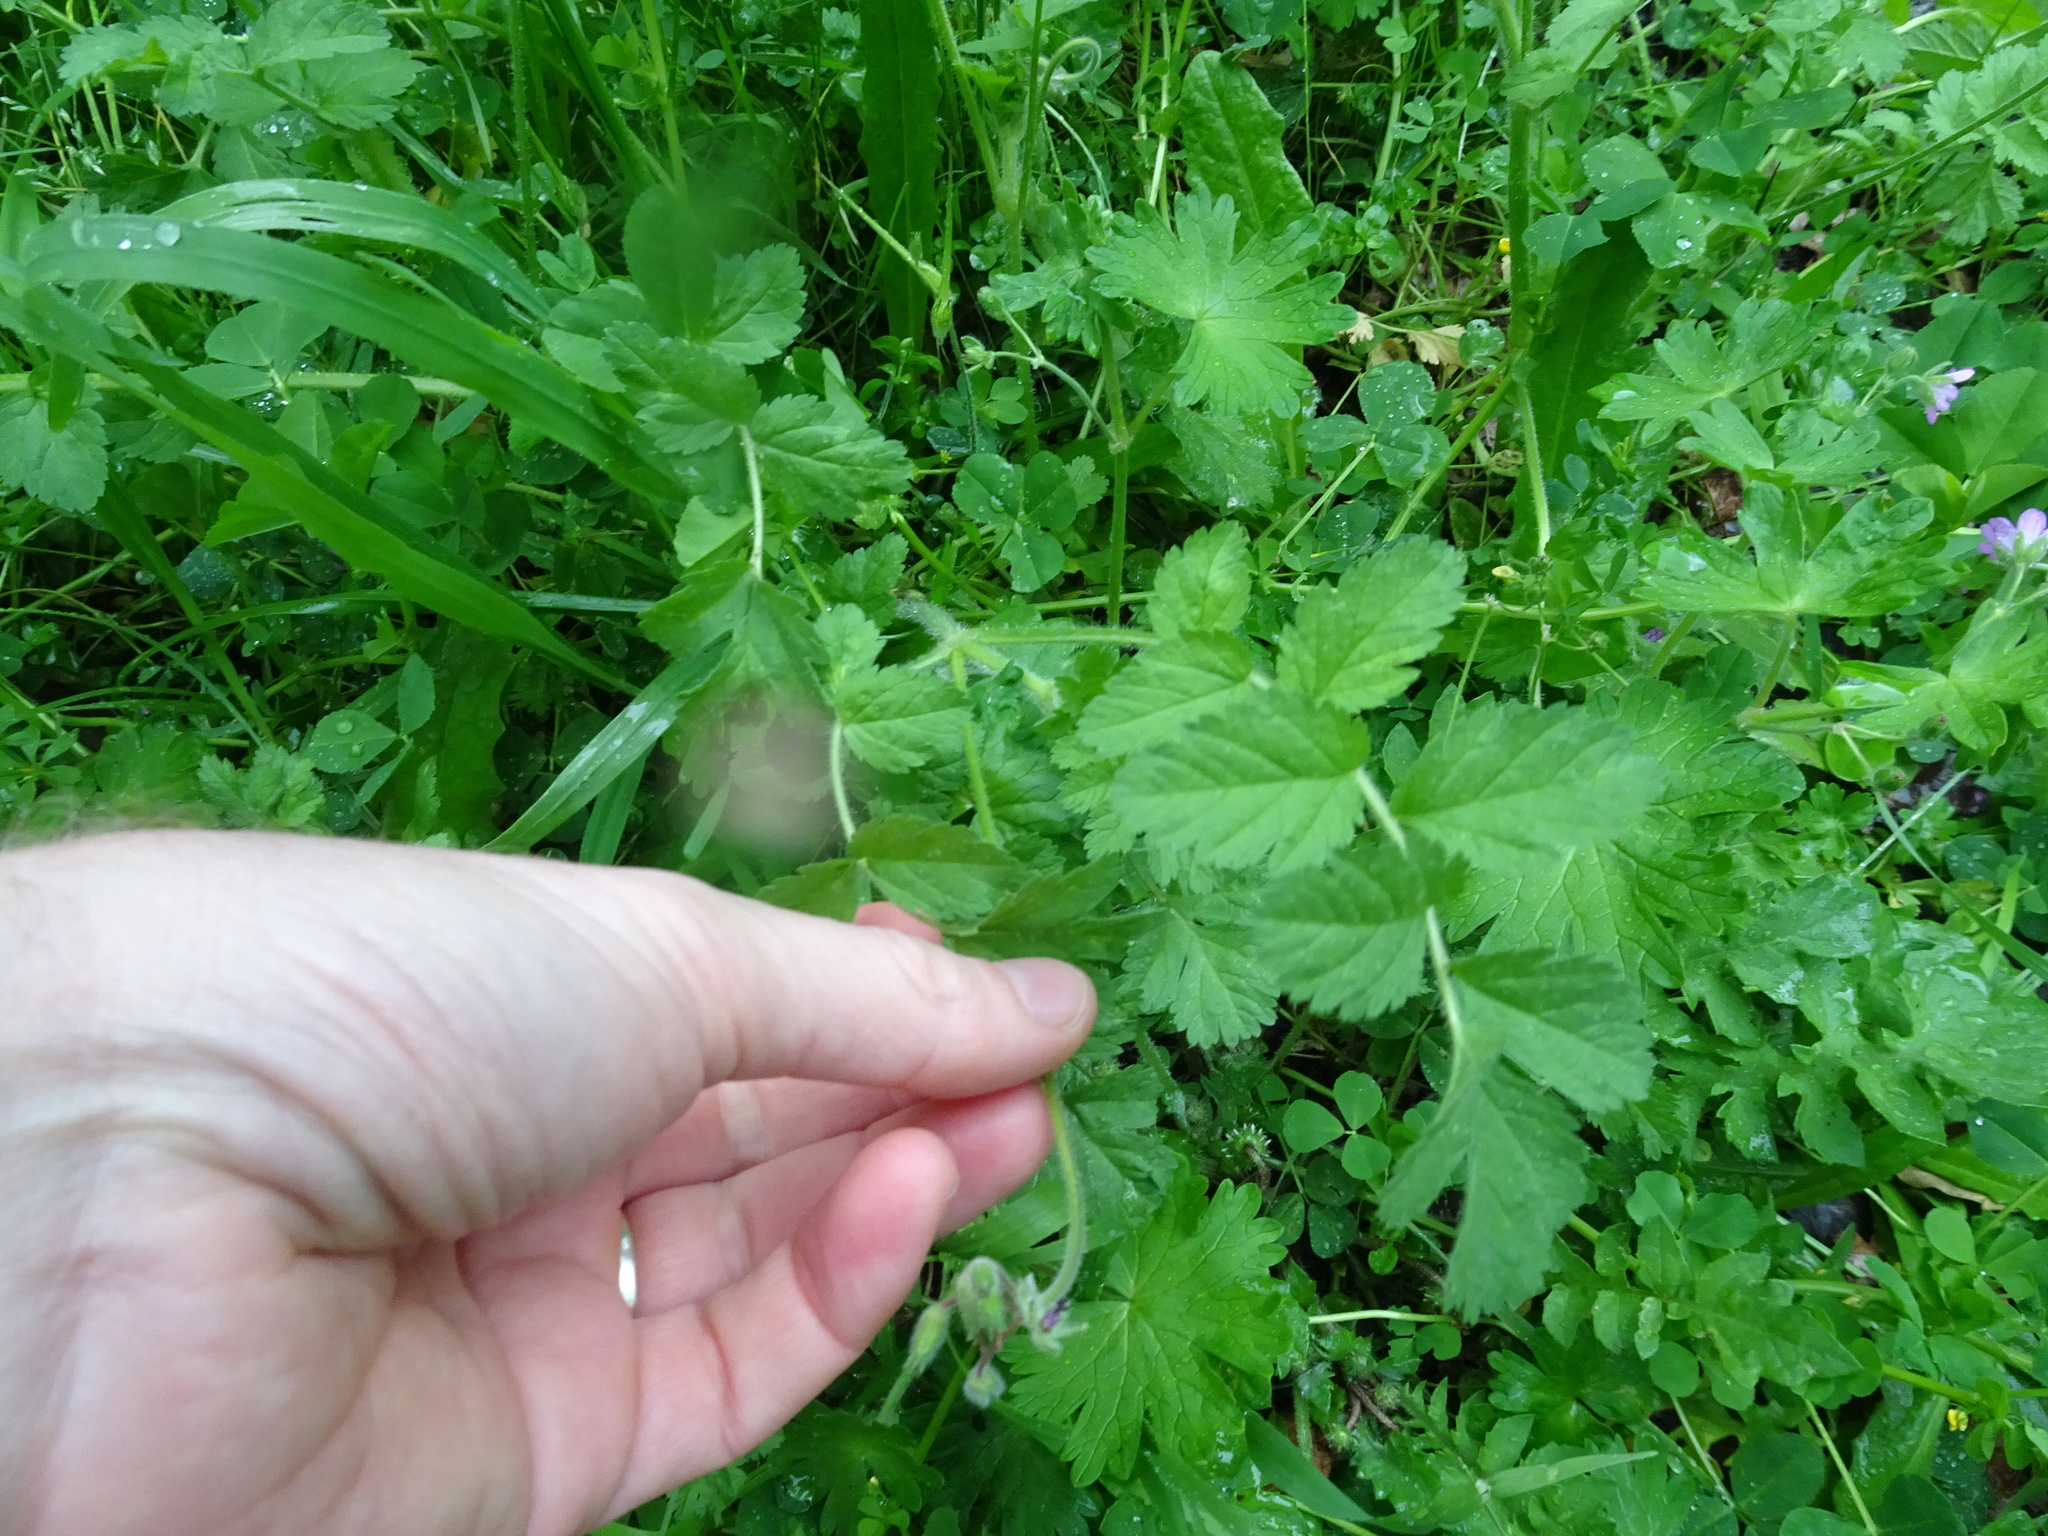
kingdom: Plantae
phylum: Tracheophyta
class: Magnoliopsida
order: Geraniales
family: Geraniaceae
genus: Erodium
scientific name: Erodium moschatum
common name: Musk stork's-bill
